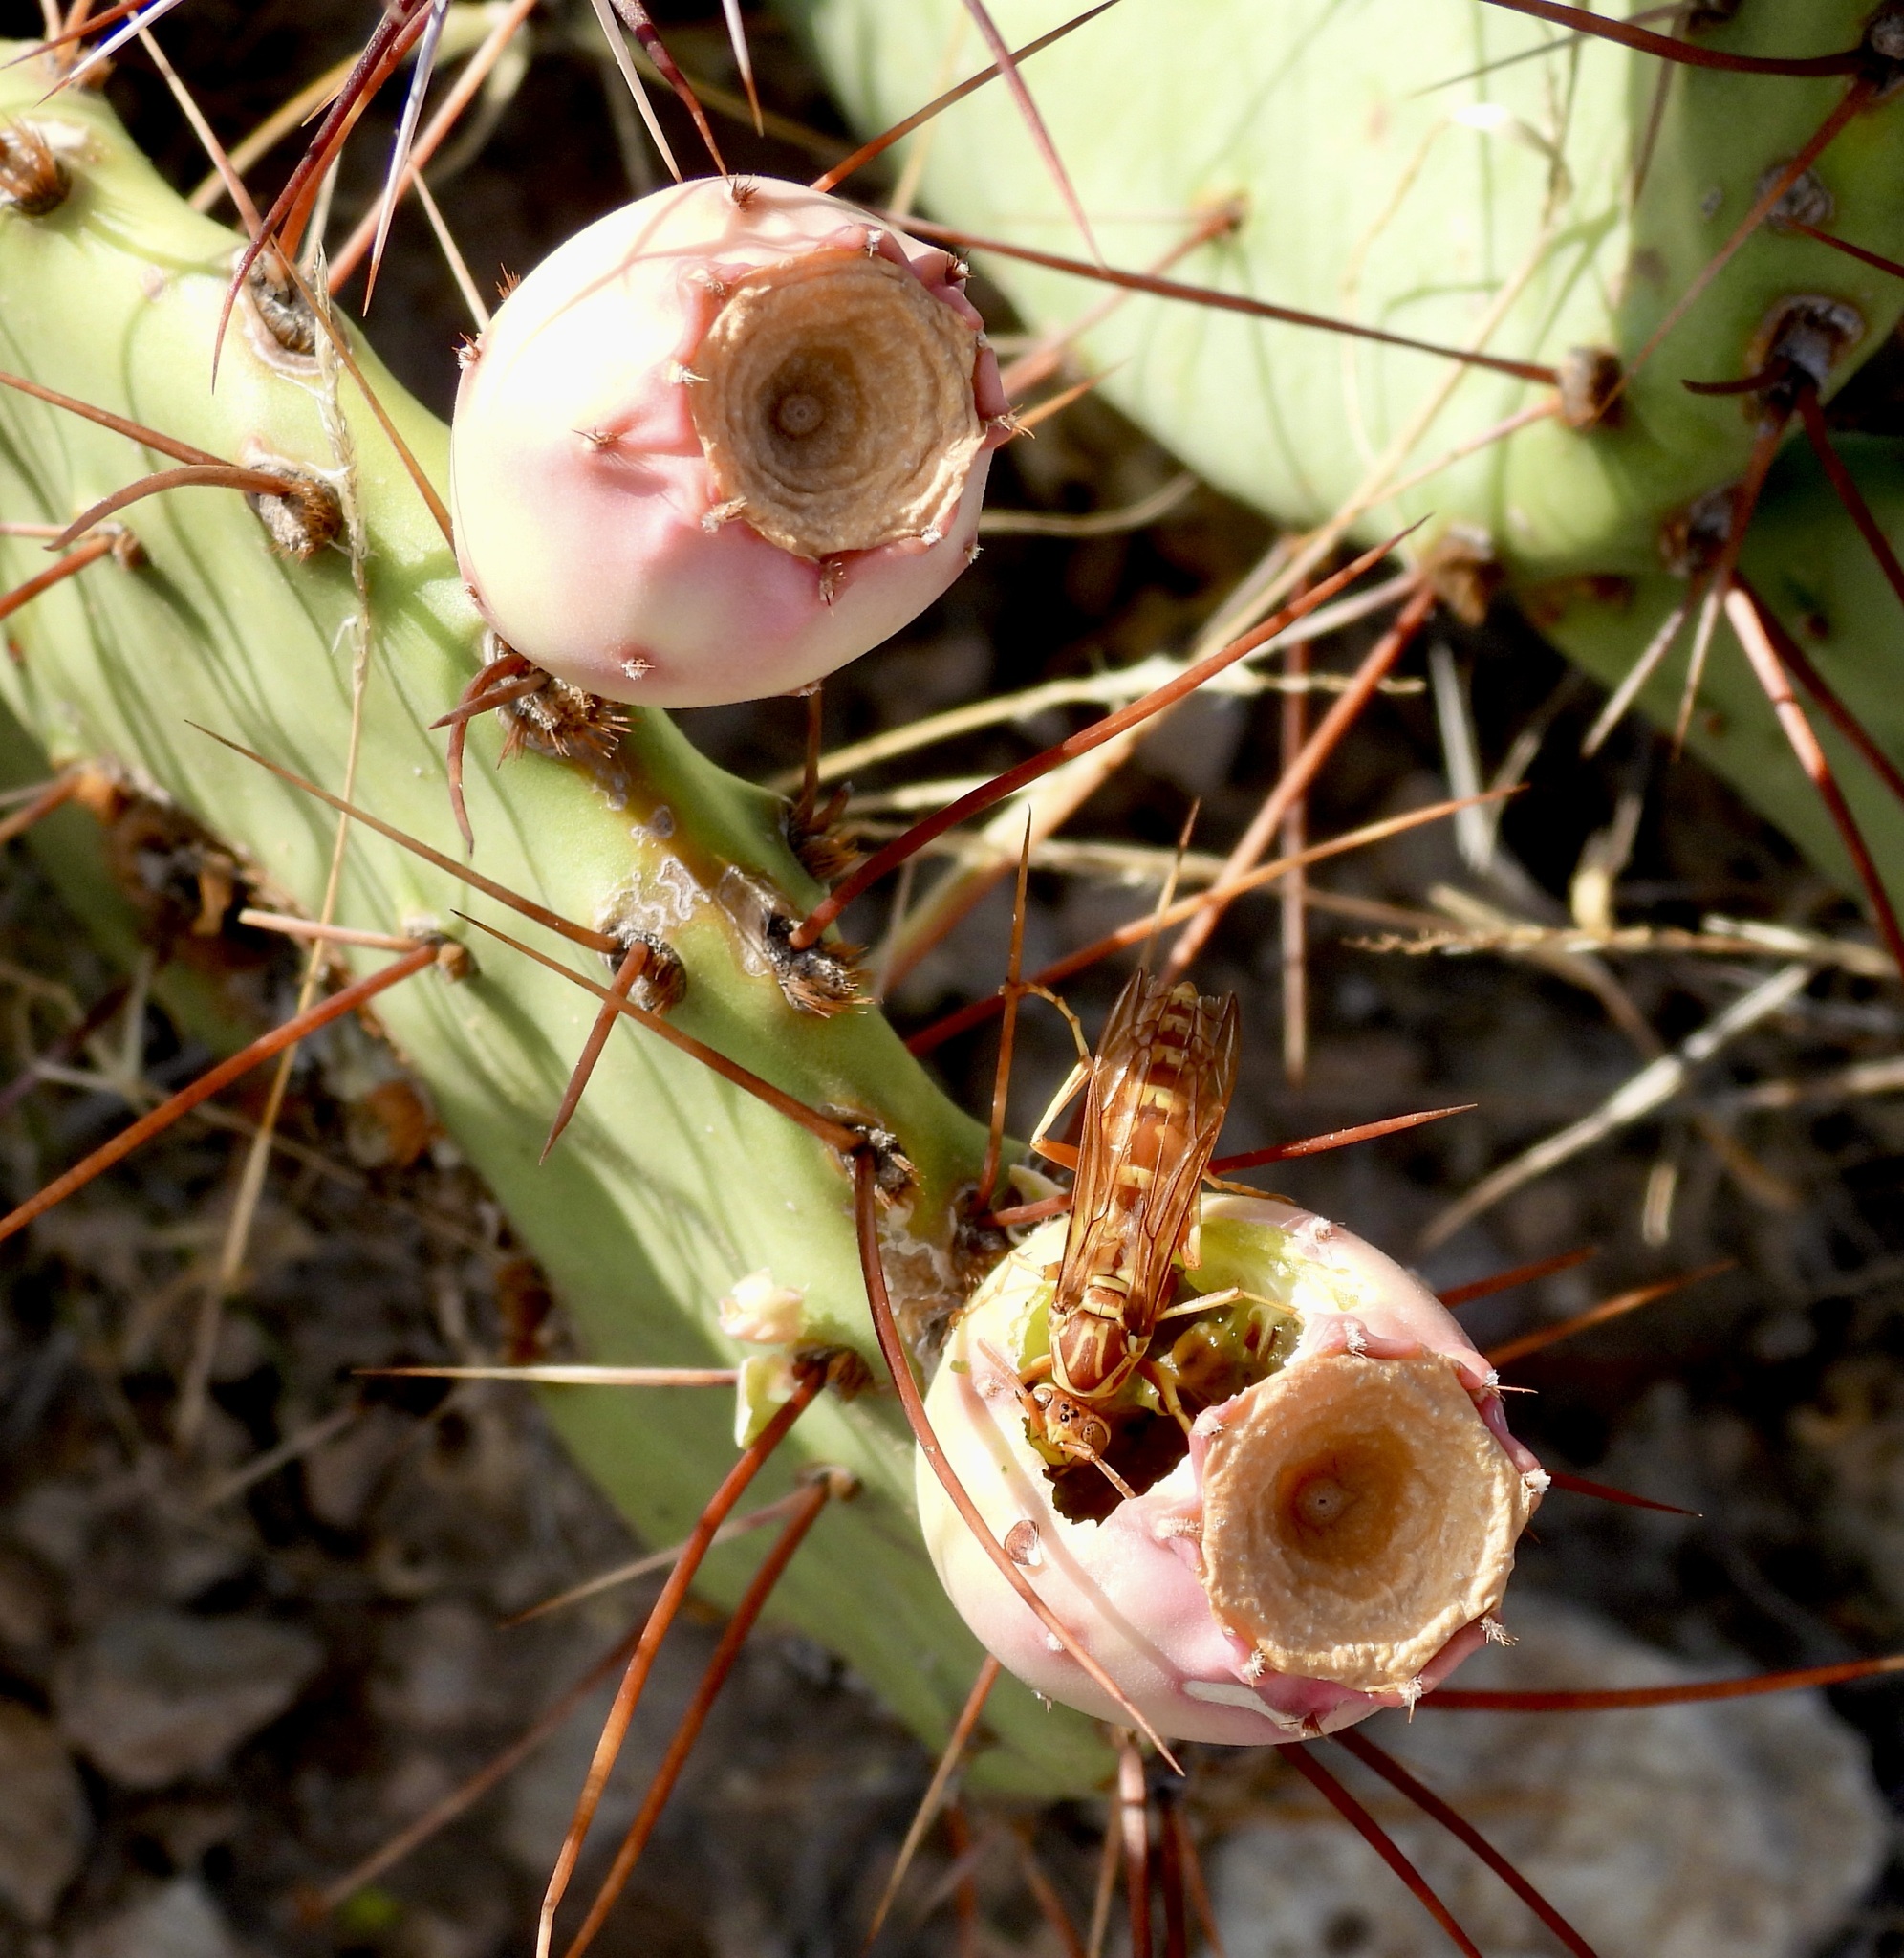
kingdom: Animalia
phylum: Arthropoda
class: Insecta
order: Hymenoptera
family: Eumenidae
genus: Polistes
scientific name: Polistes apachus
